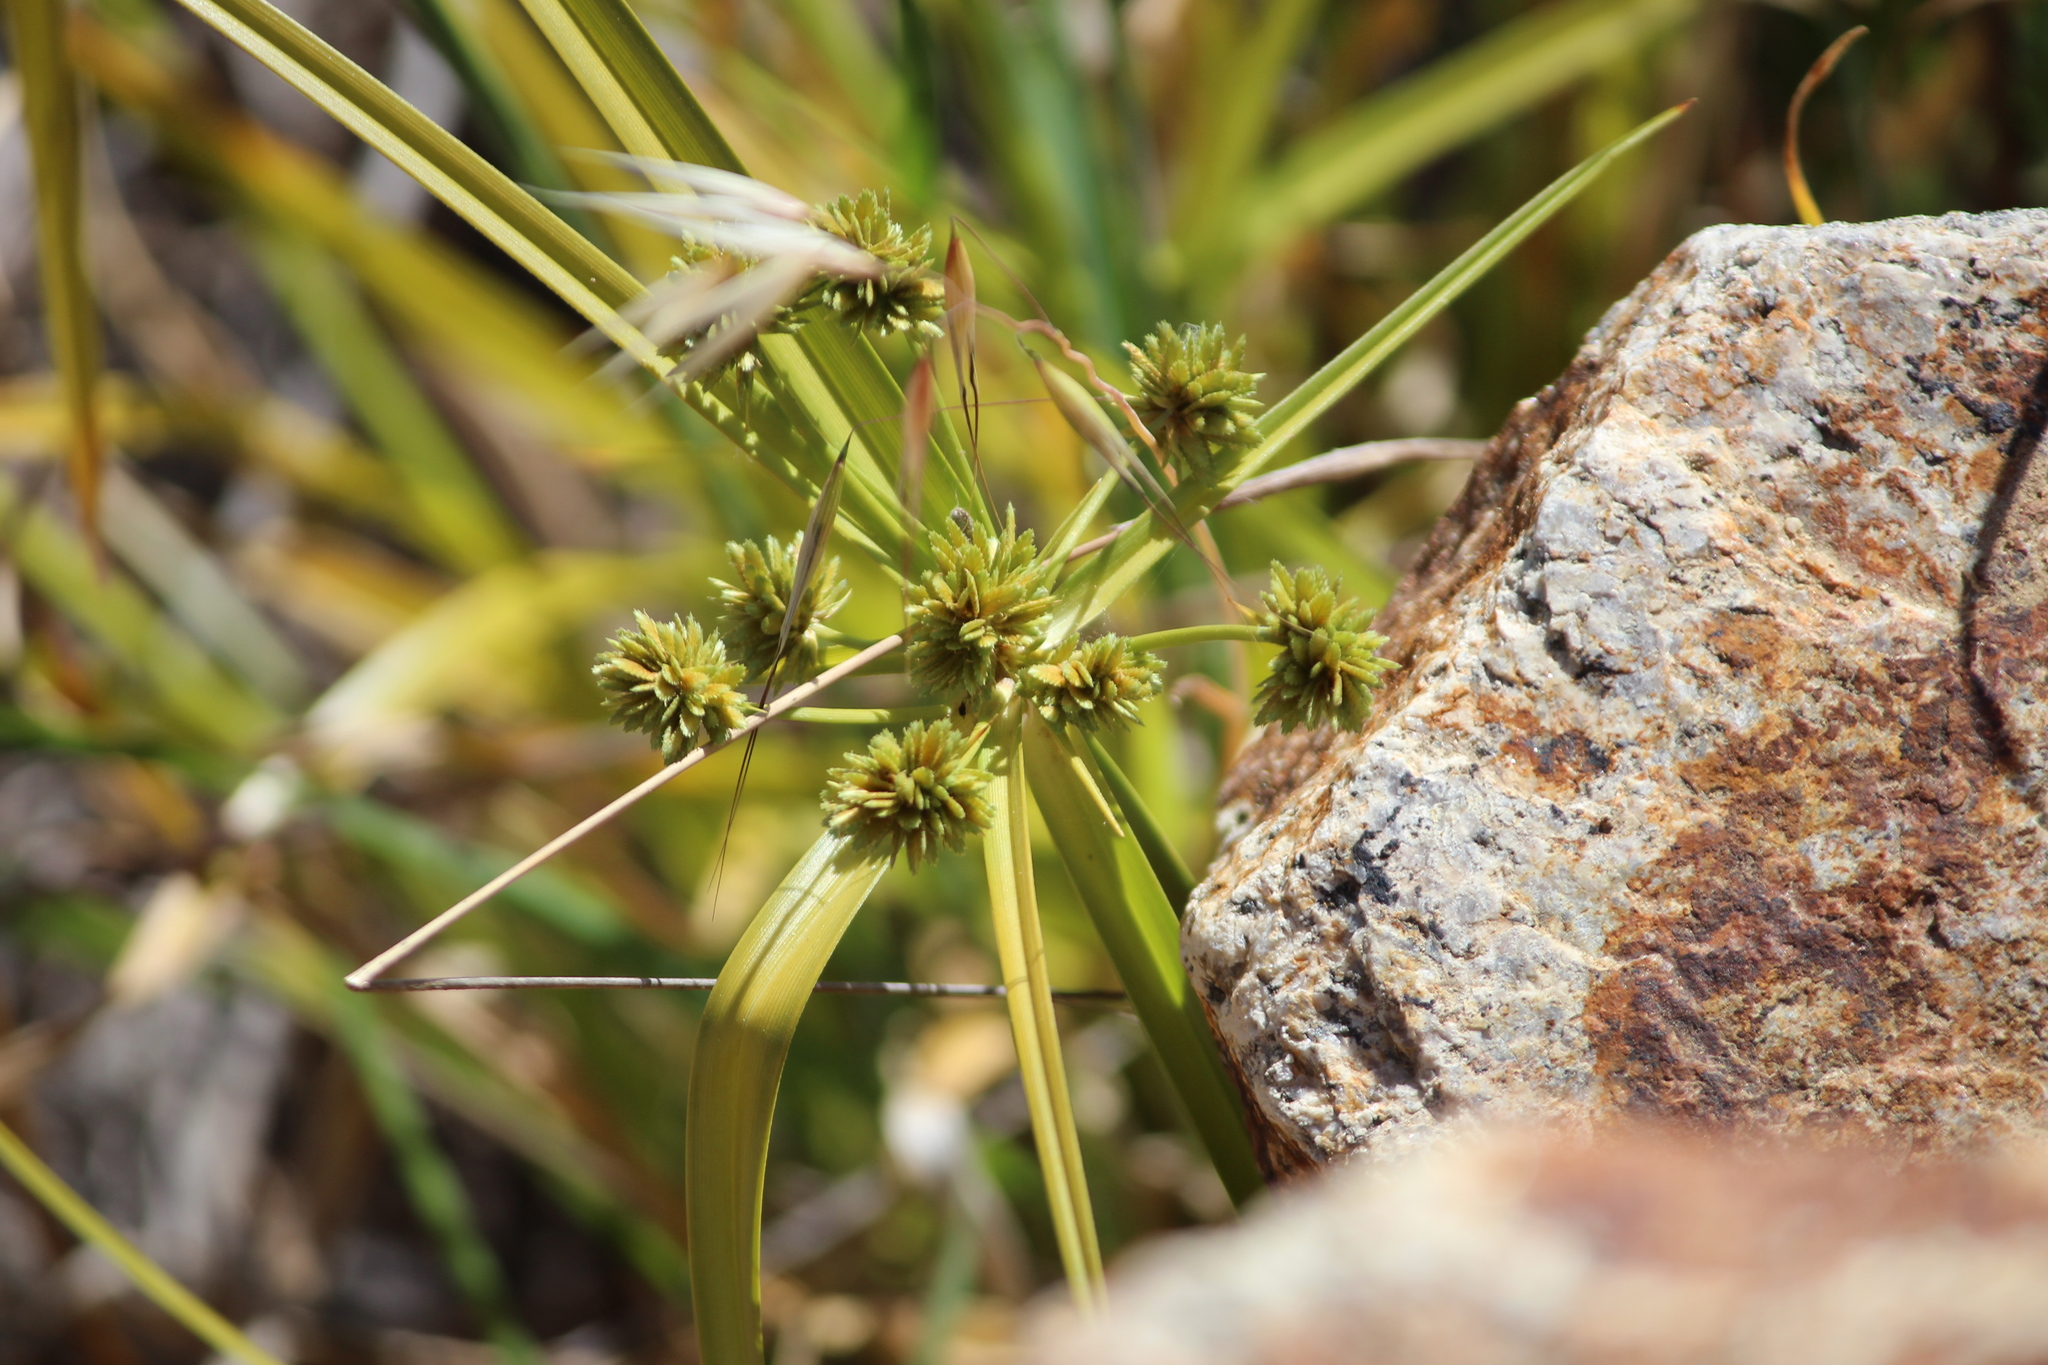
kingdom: Plantae
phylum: Tracheophyta
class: Liliopsida
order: Poales
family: Cyperaceae
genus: Cyperus
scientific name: Cyperus eragrostis
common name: Tall flatsedge
